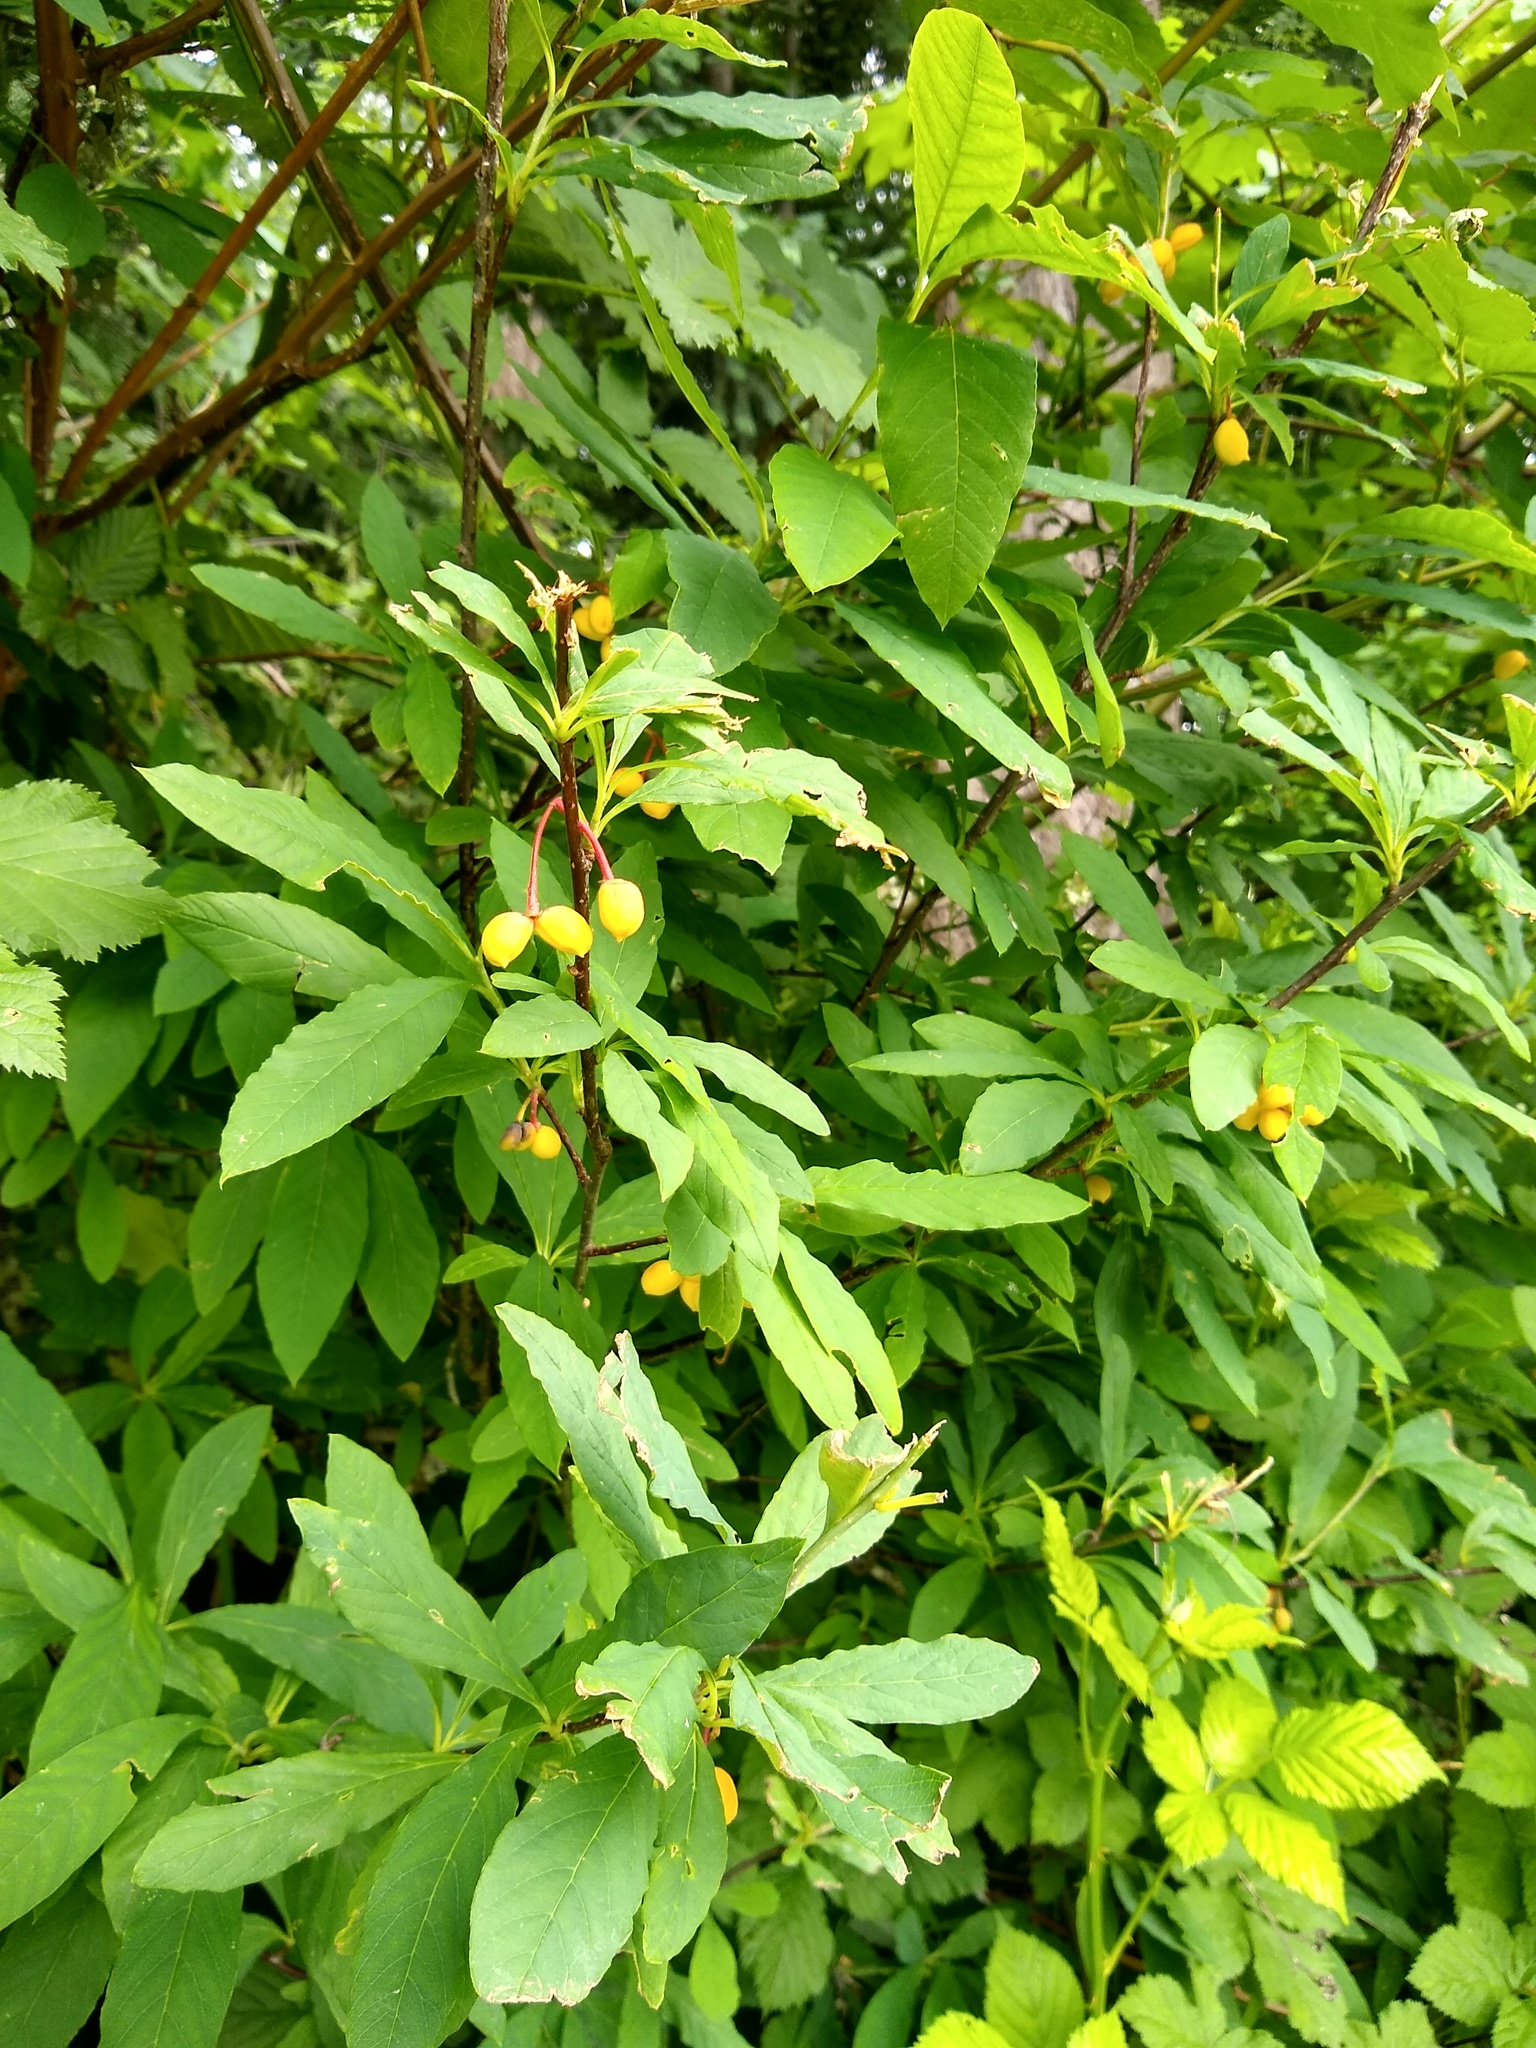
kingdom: Plantae
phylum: Tracheophyta
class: Magnoliopsida
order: Rosales
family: Rosaceae
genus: Oemleria
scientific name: Oemleria cerasiformis
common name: Osoberry
